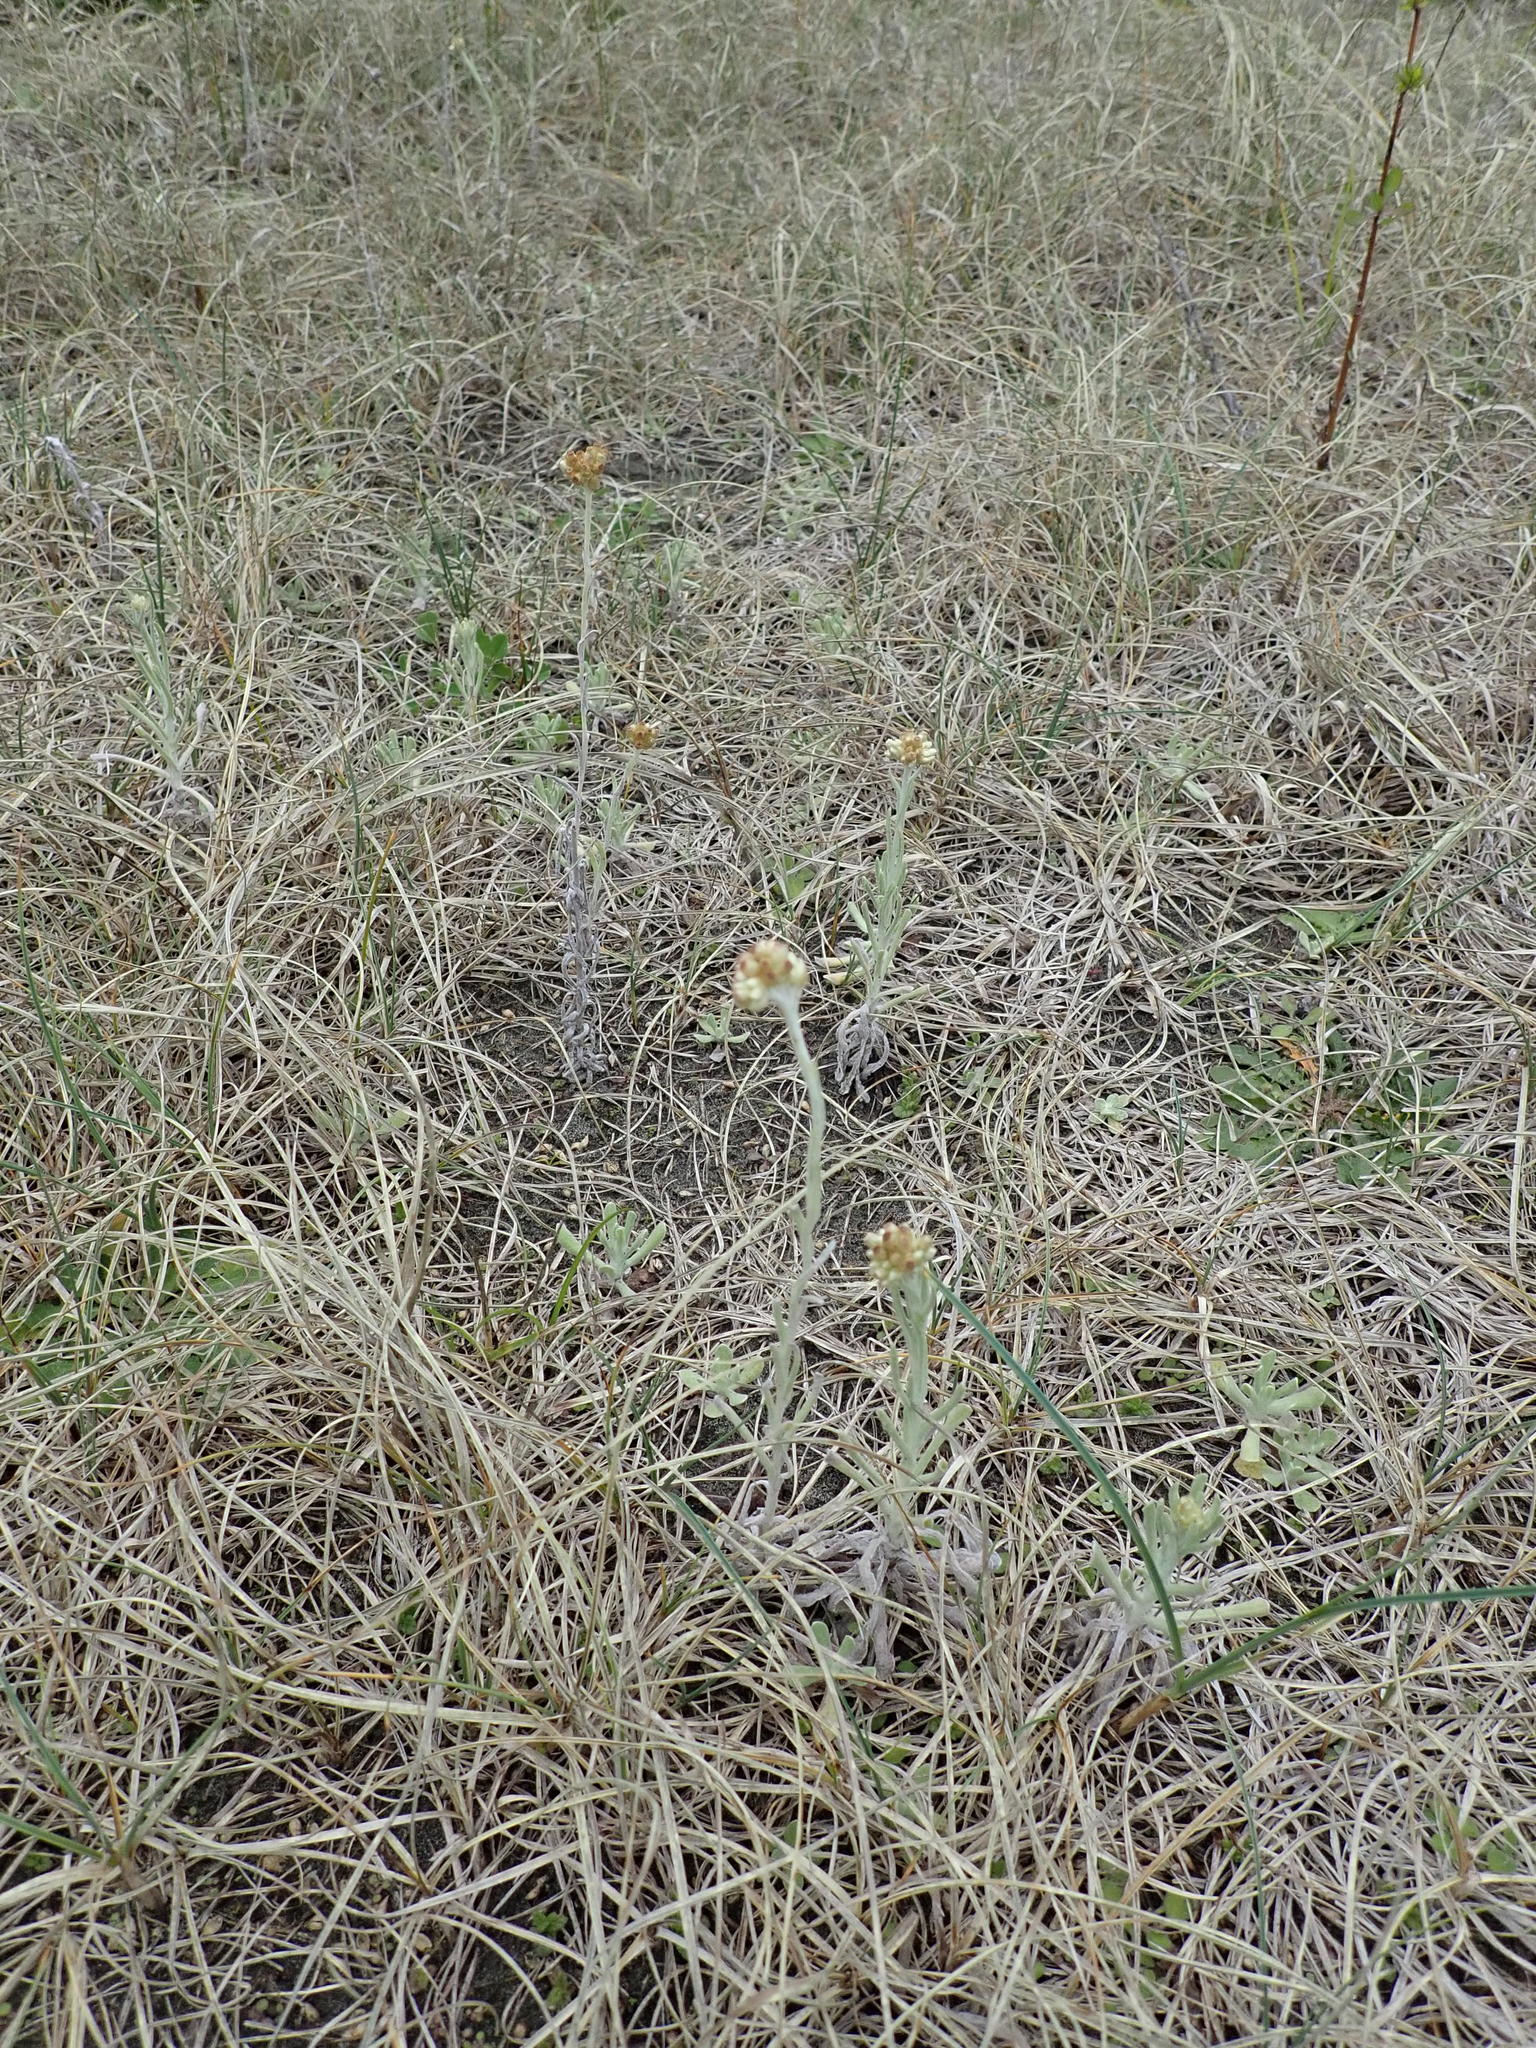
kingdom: Plantae
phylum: Tracheophyta
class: Magnoliopsida
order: Asterales
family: Asteraceae
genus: Helichrysum
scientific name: Helichrysum luteoalbum
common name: Daisy
